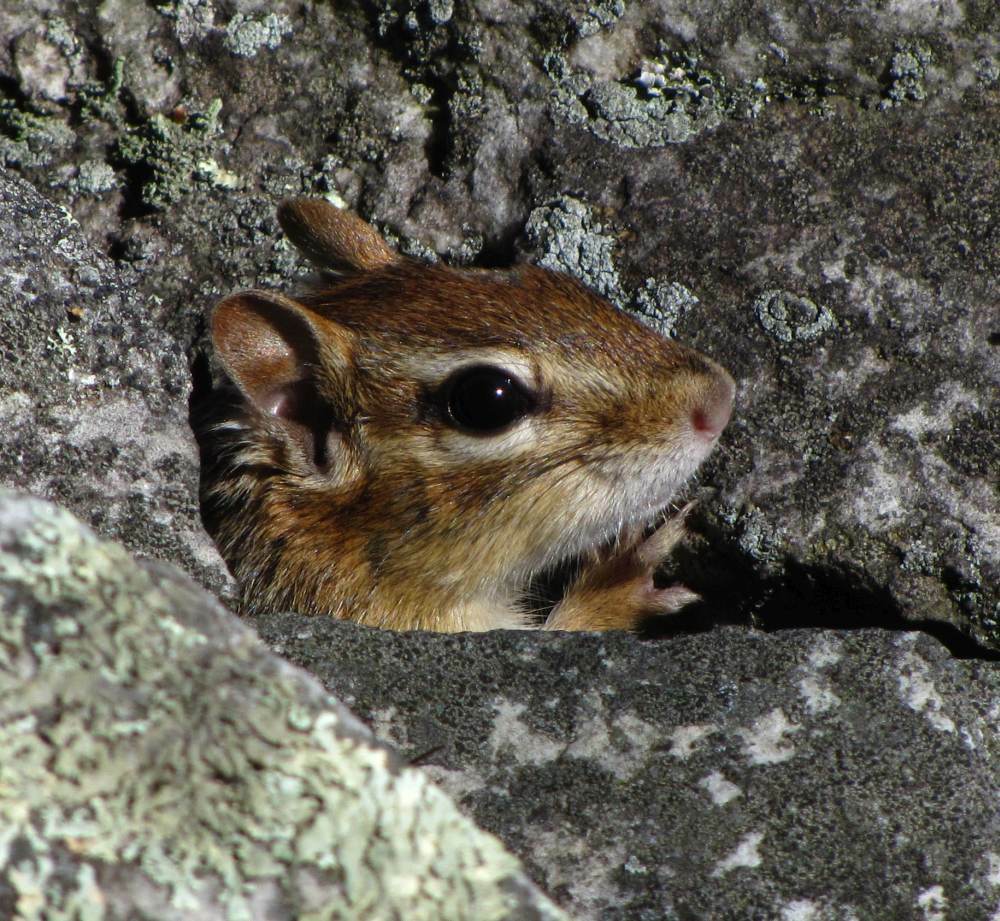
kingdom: Animalia
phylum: Chordata
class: Mammalia
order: Rodentia
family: Sciuridae
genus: Tamias
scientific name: Tamias striatus
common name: Eastern chipmunk
